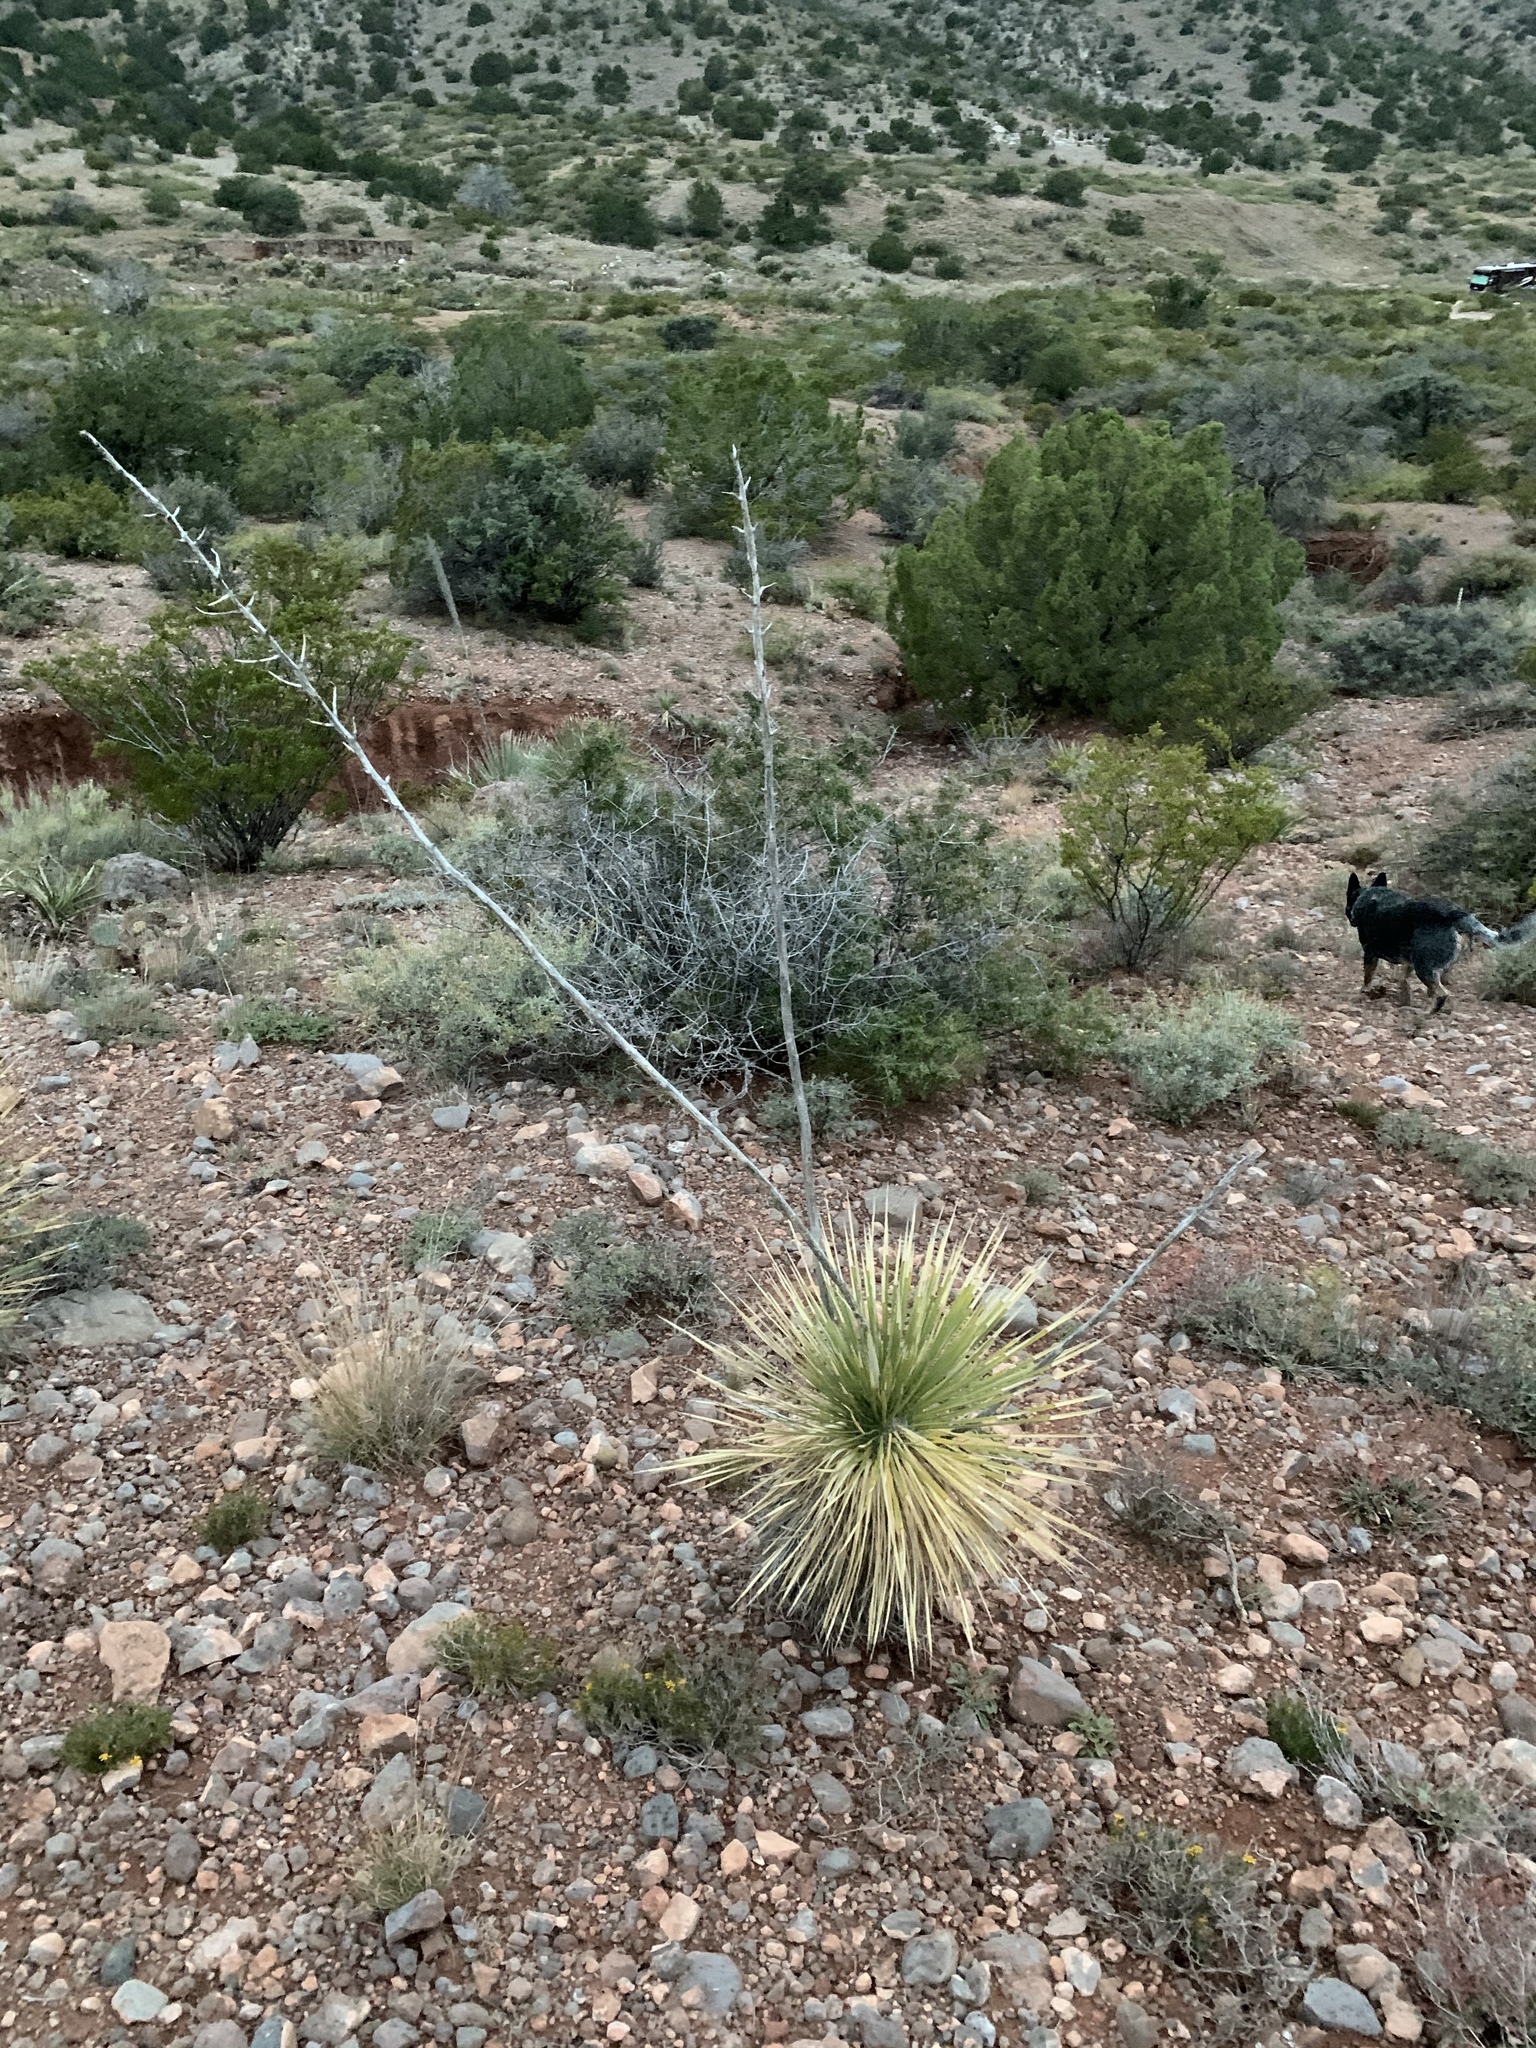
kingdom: Plantae
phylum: Tracheophyta
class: Liliopsida
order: Asparagales
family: Asparagaceae
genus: Yucca
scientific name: Yucca elata
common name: Palmella
